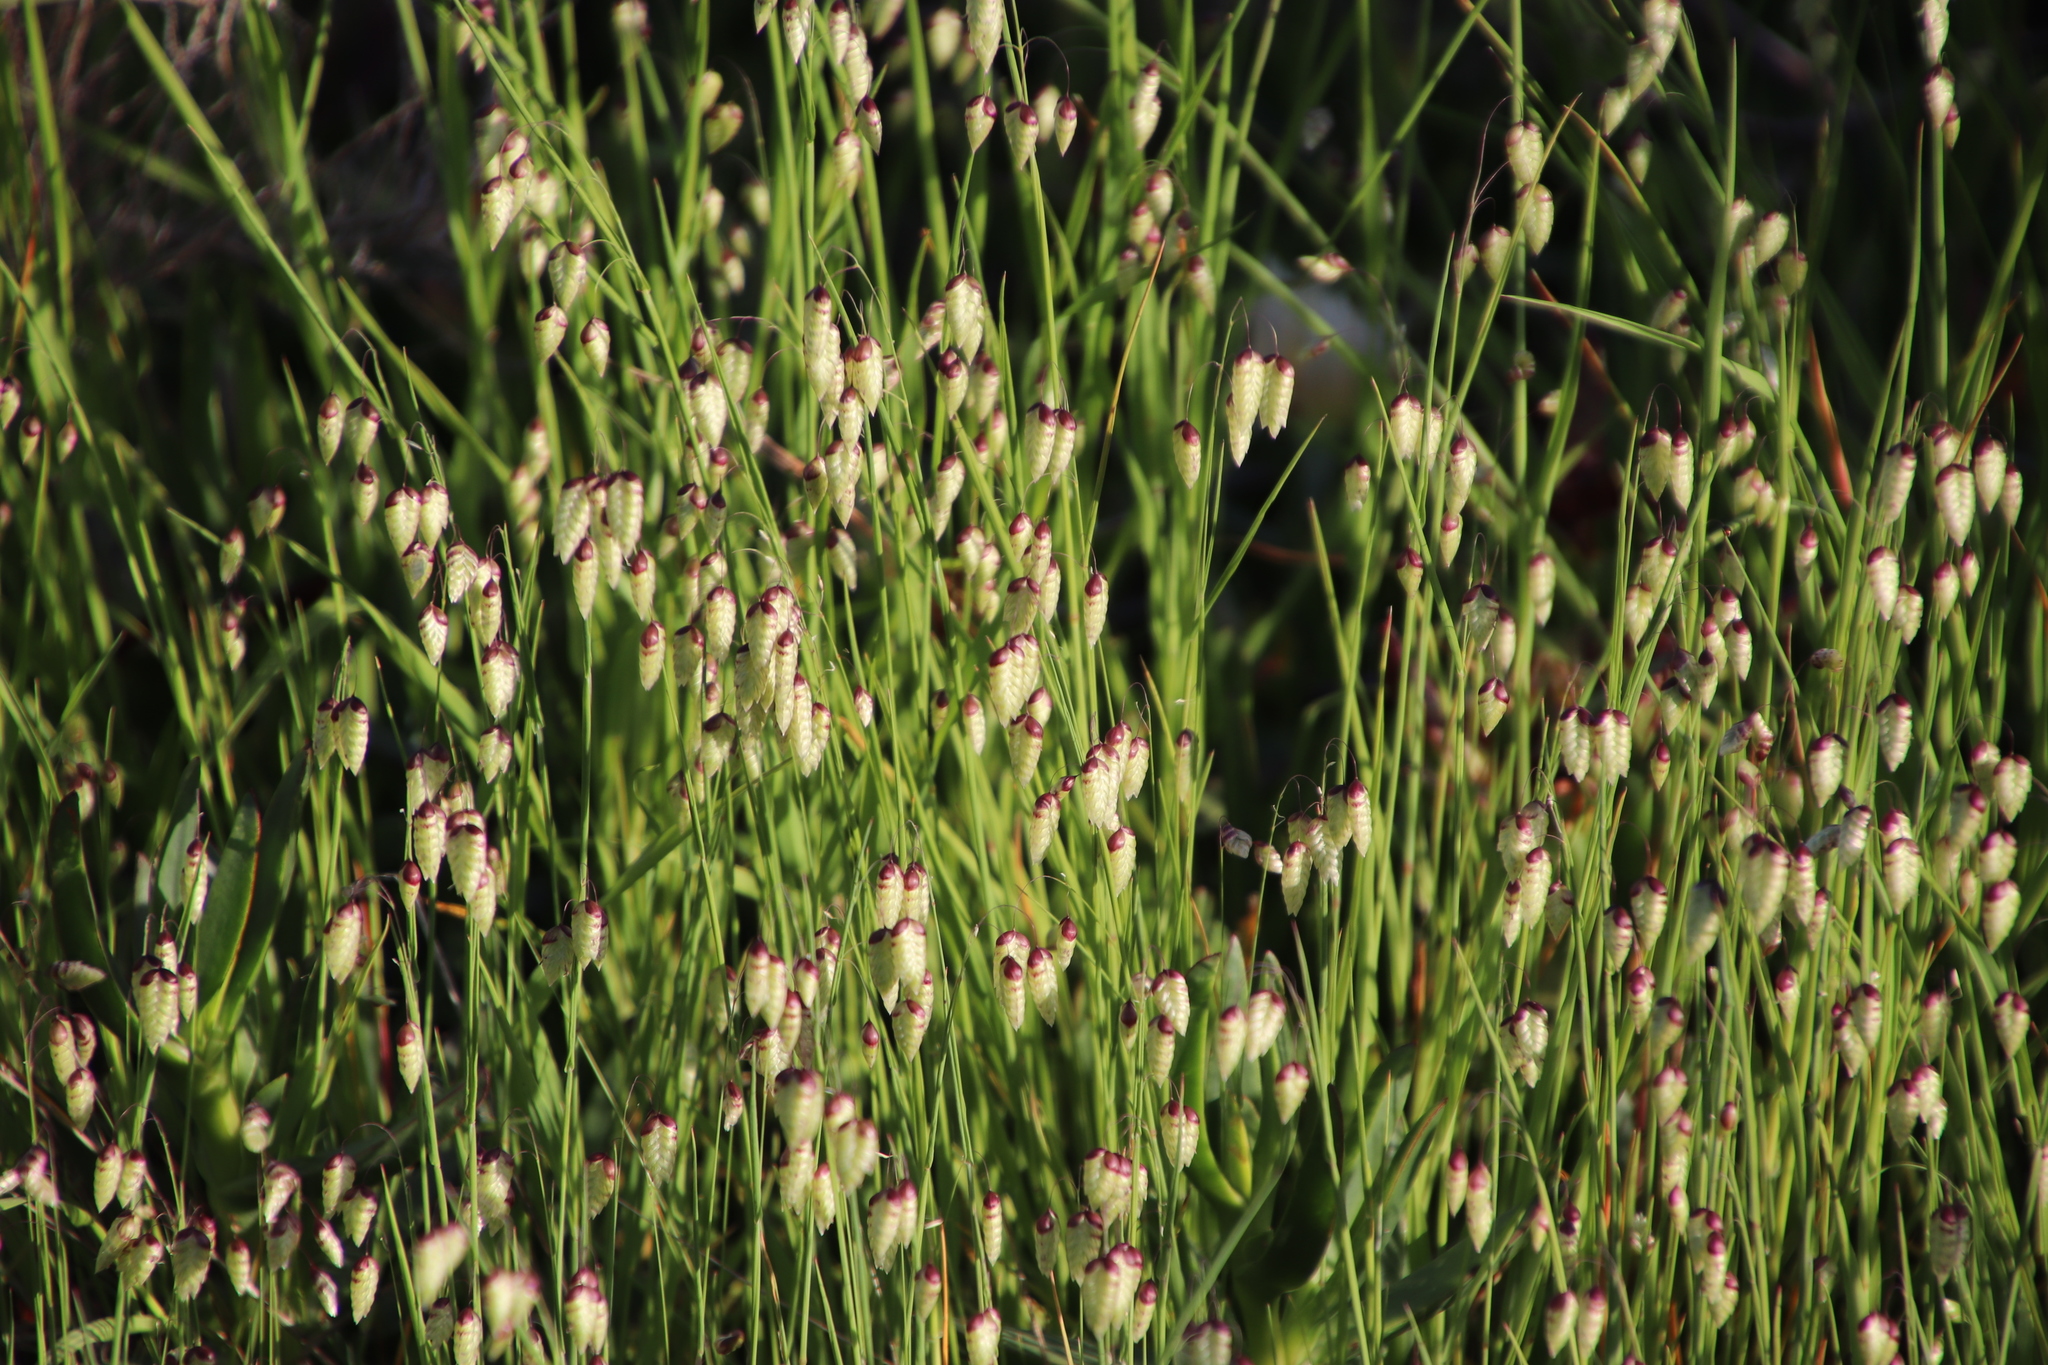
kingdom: Plantae
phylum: Tracheophyta
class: Liliopsida
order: Poales
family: Poaceae
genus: Briza
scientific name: Briza maxima
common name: Big quakinggrass
